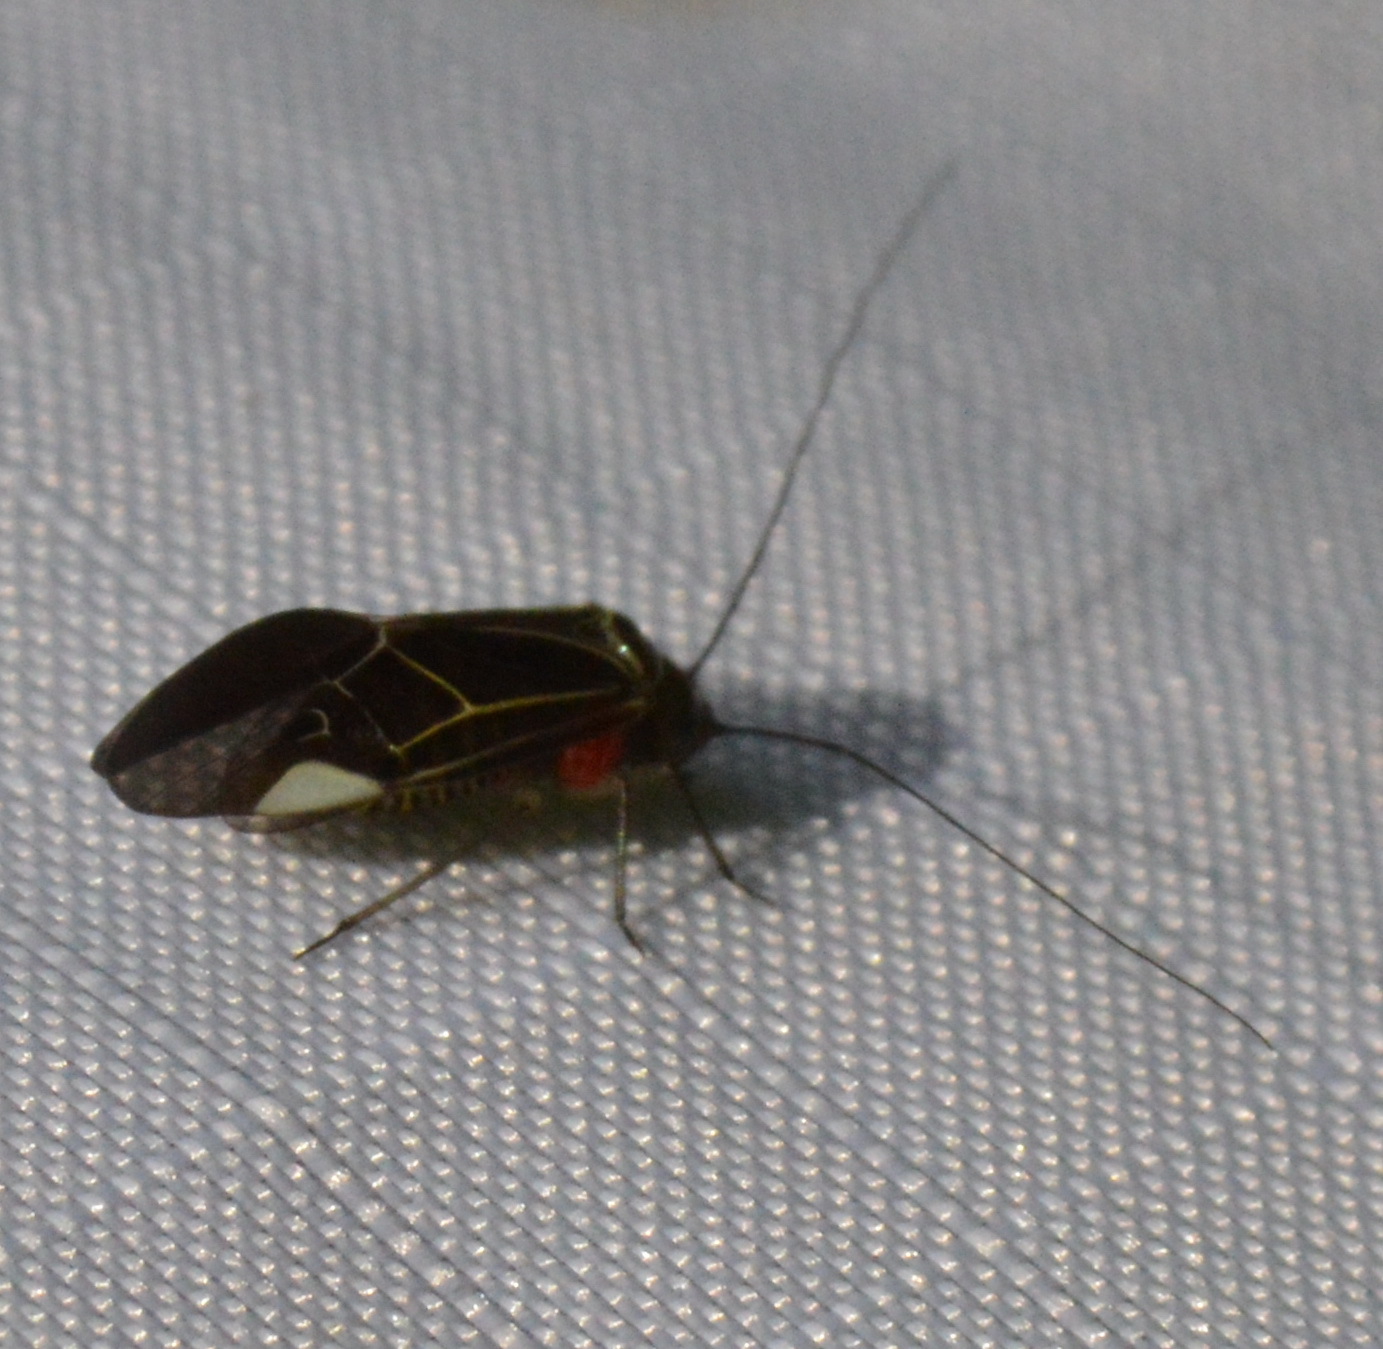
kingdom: Animalia
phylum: Arthropoda
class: Insecta
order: Psocodea
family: Psocidae
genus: Cerastipsocus
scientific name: Cerastipsocus venosus
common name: Tree cattle
